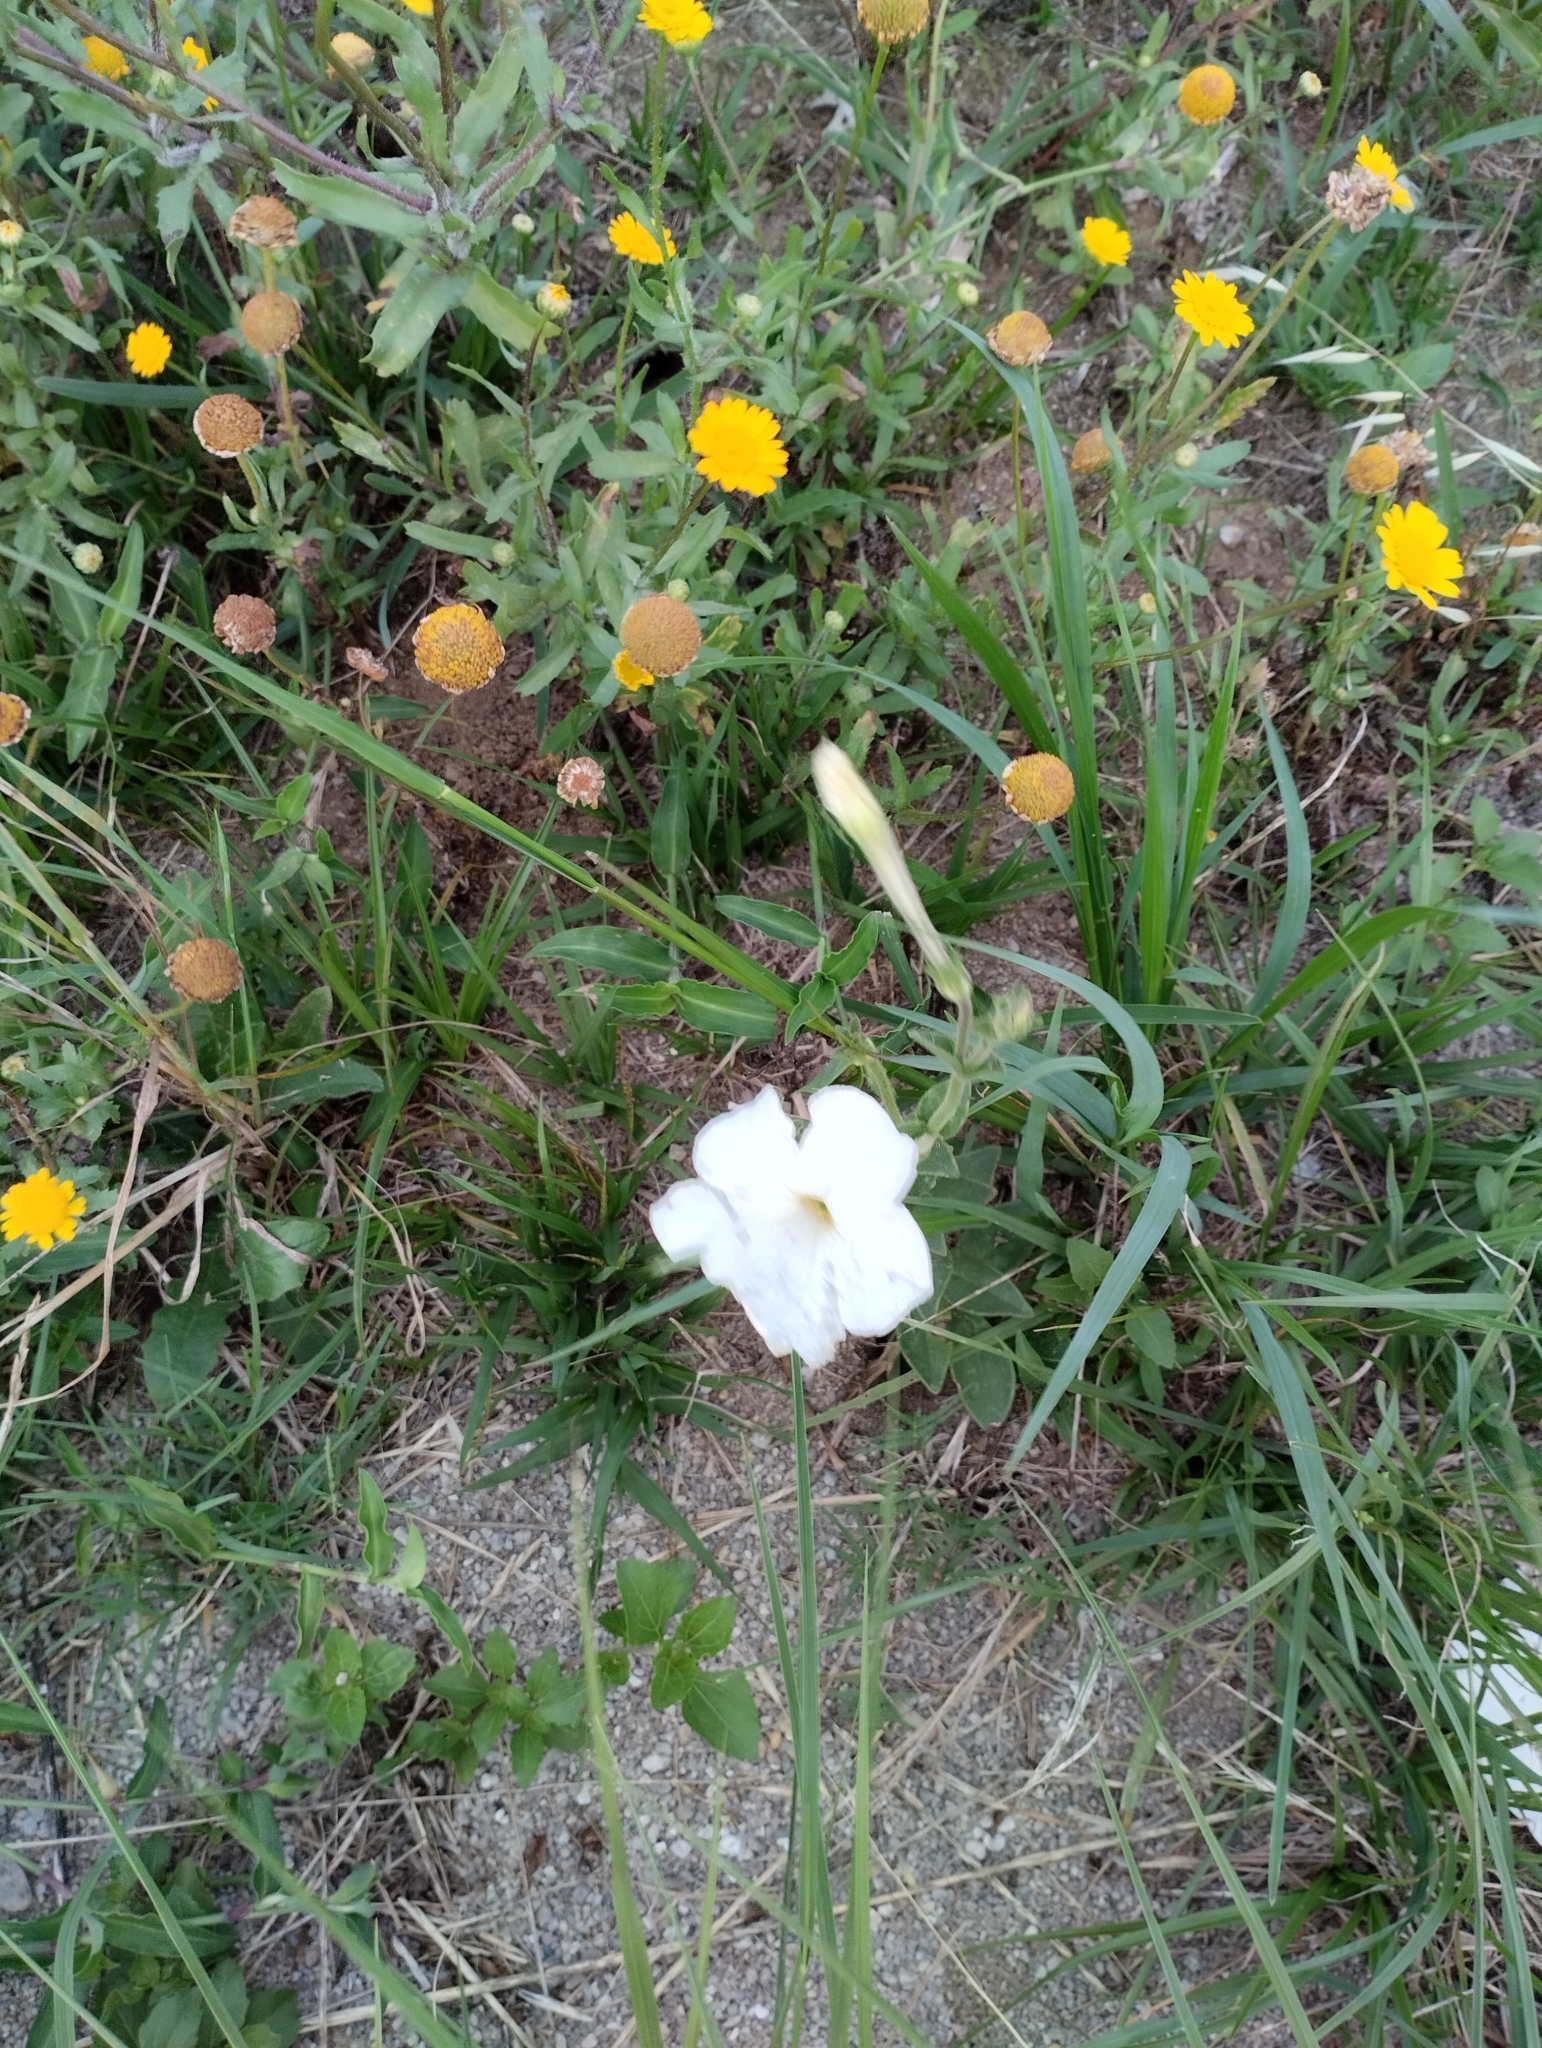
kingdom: Plantae
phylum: Tracheophyta
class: Magnoliopsida
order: Solanales
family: Solanaceae
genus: Petunia
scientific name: Petunia axillaris
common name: Large white petunia
